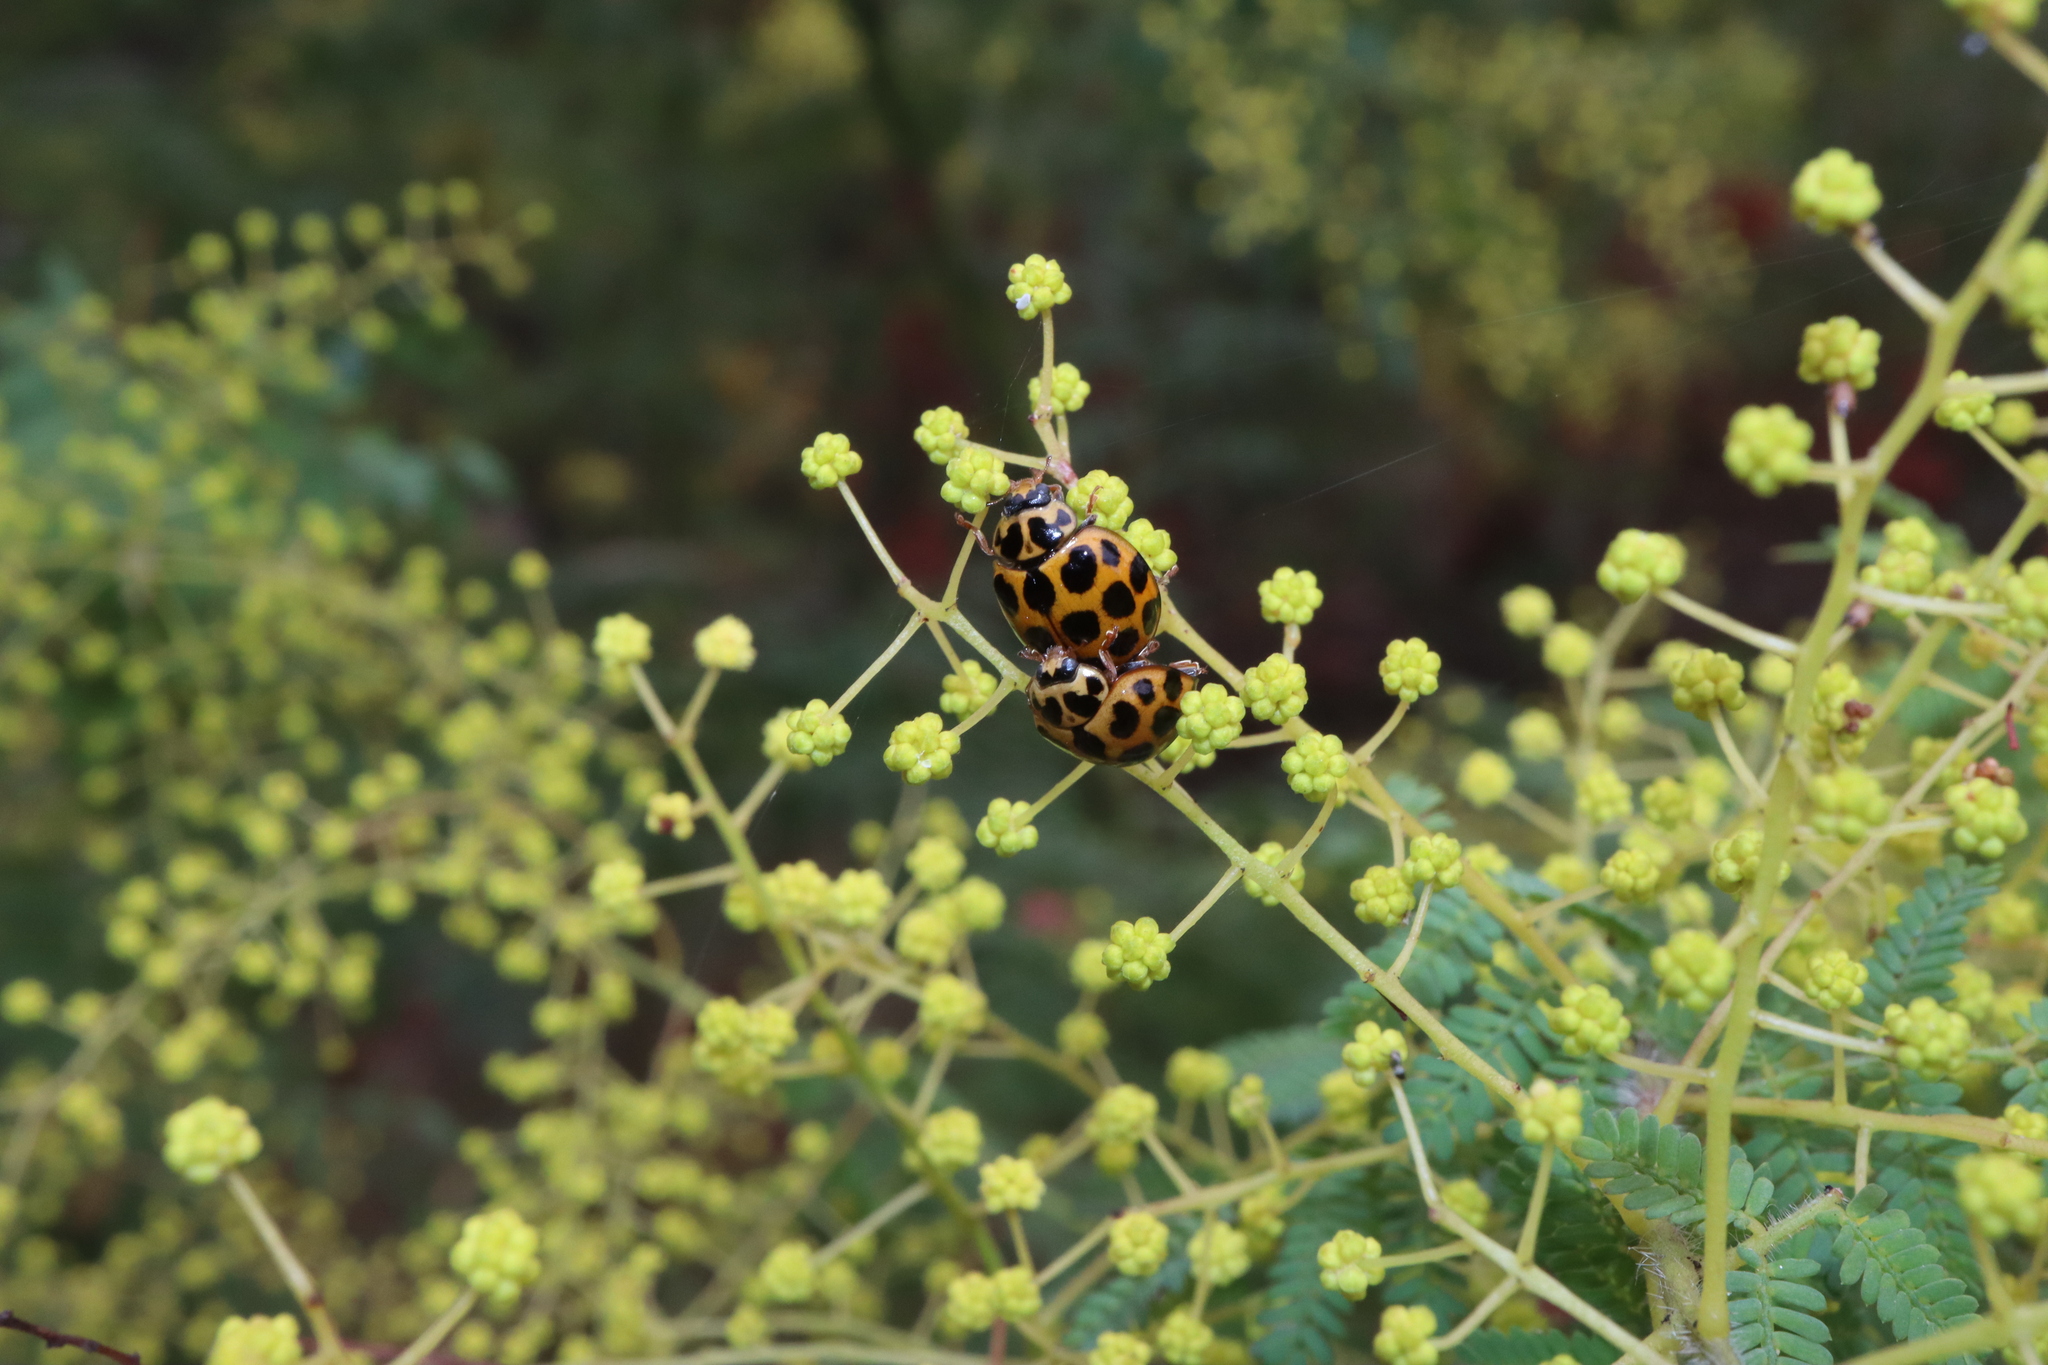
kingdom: Animalia
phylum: Arthropoda
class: Insecta
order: Coleoptera
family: Coccinellidae
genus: Harmonia
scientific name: Harmonia conformis
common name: Common spotted ladybird beetle
